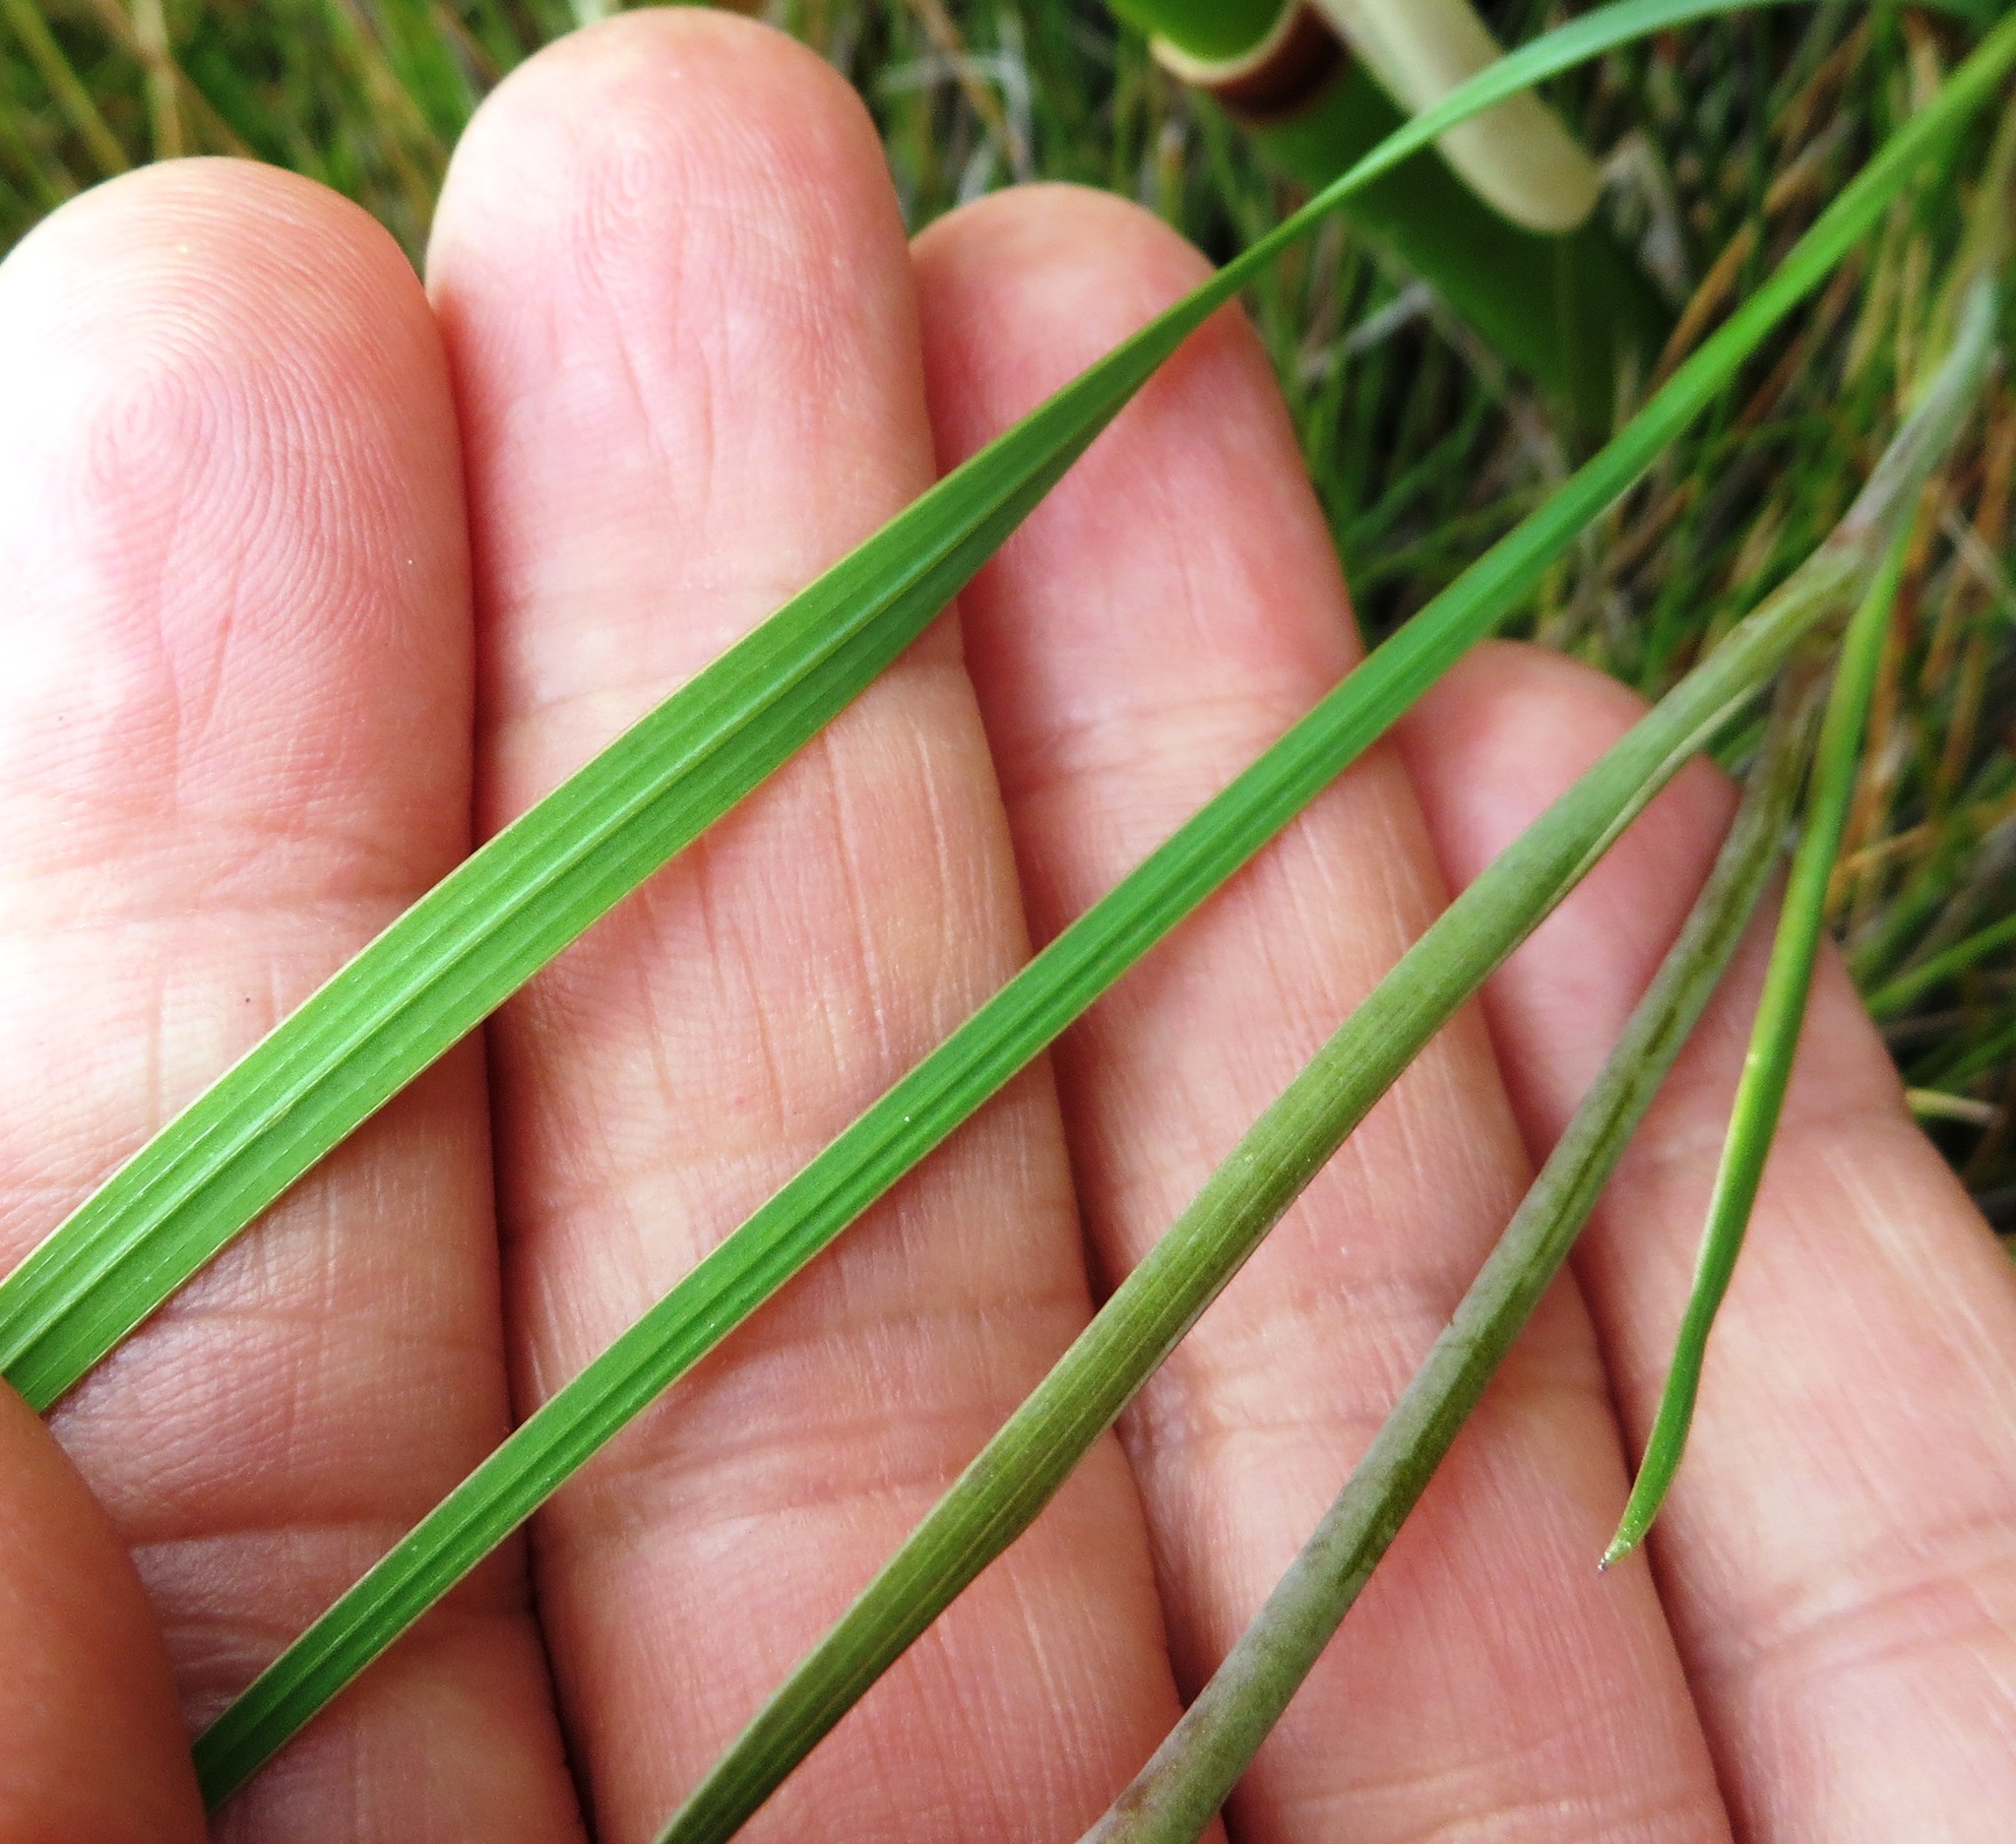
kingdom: Plantae
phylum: Tracheophyta
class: Liliopsida
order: Asparagales
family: Iridaceae
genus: Gladiolus
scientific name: Gladiolus carneus
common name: Painted-lady
